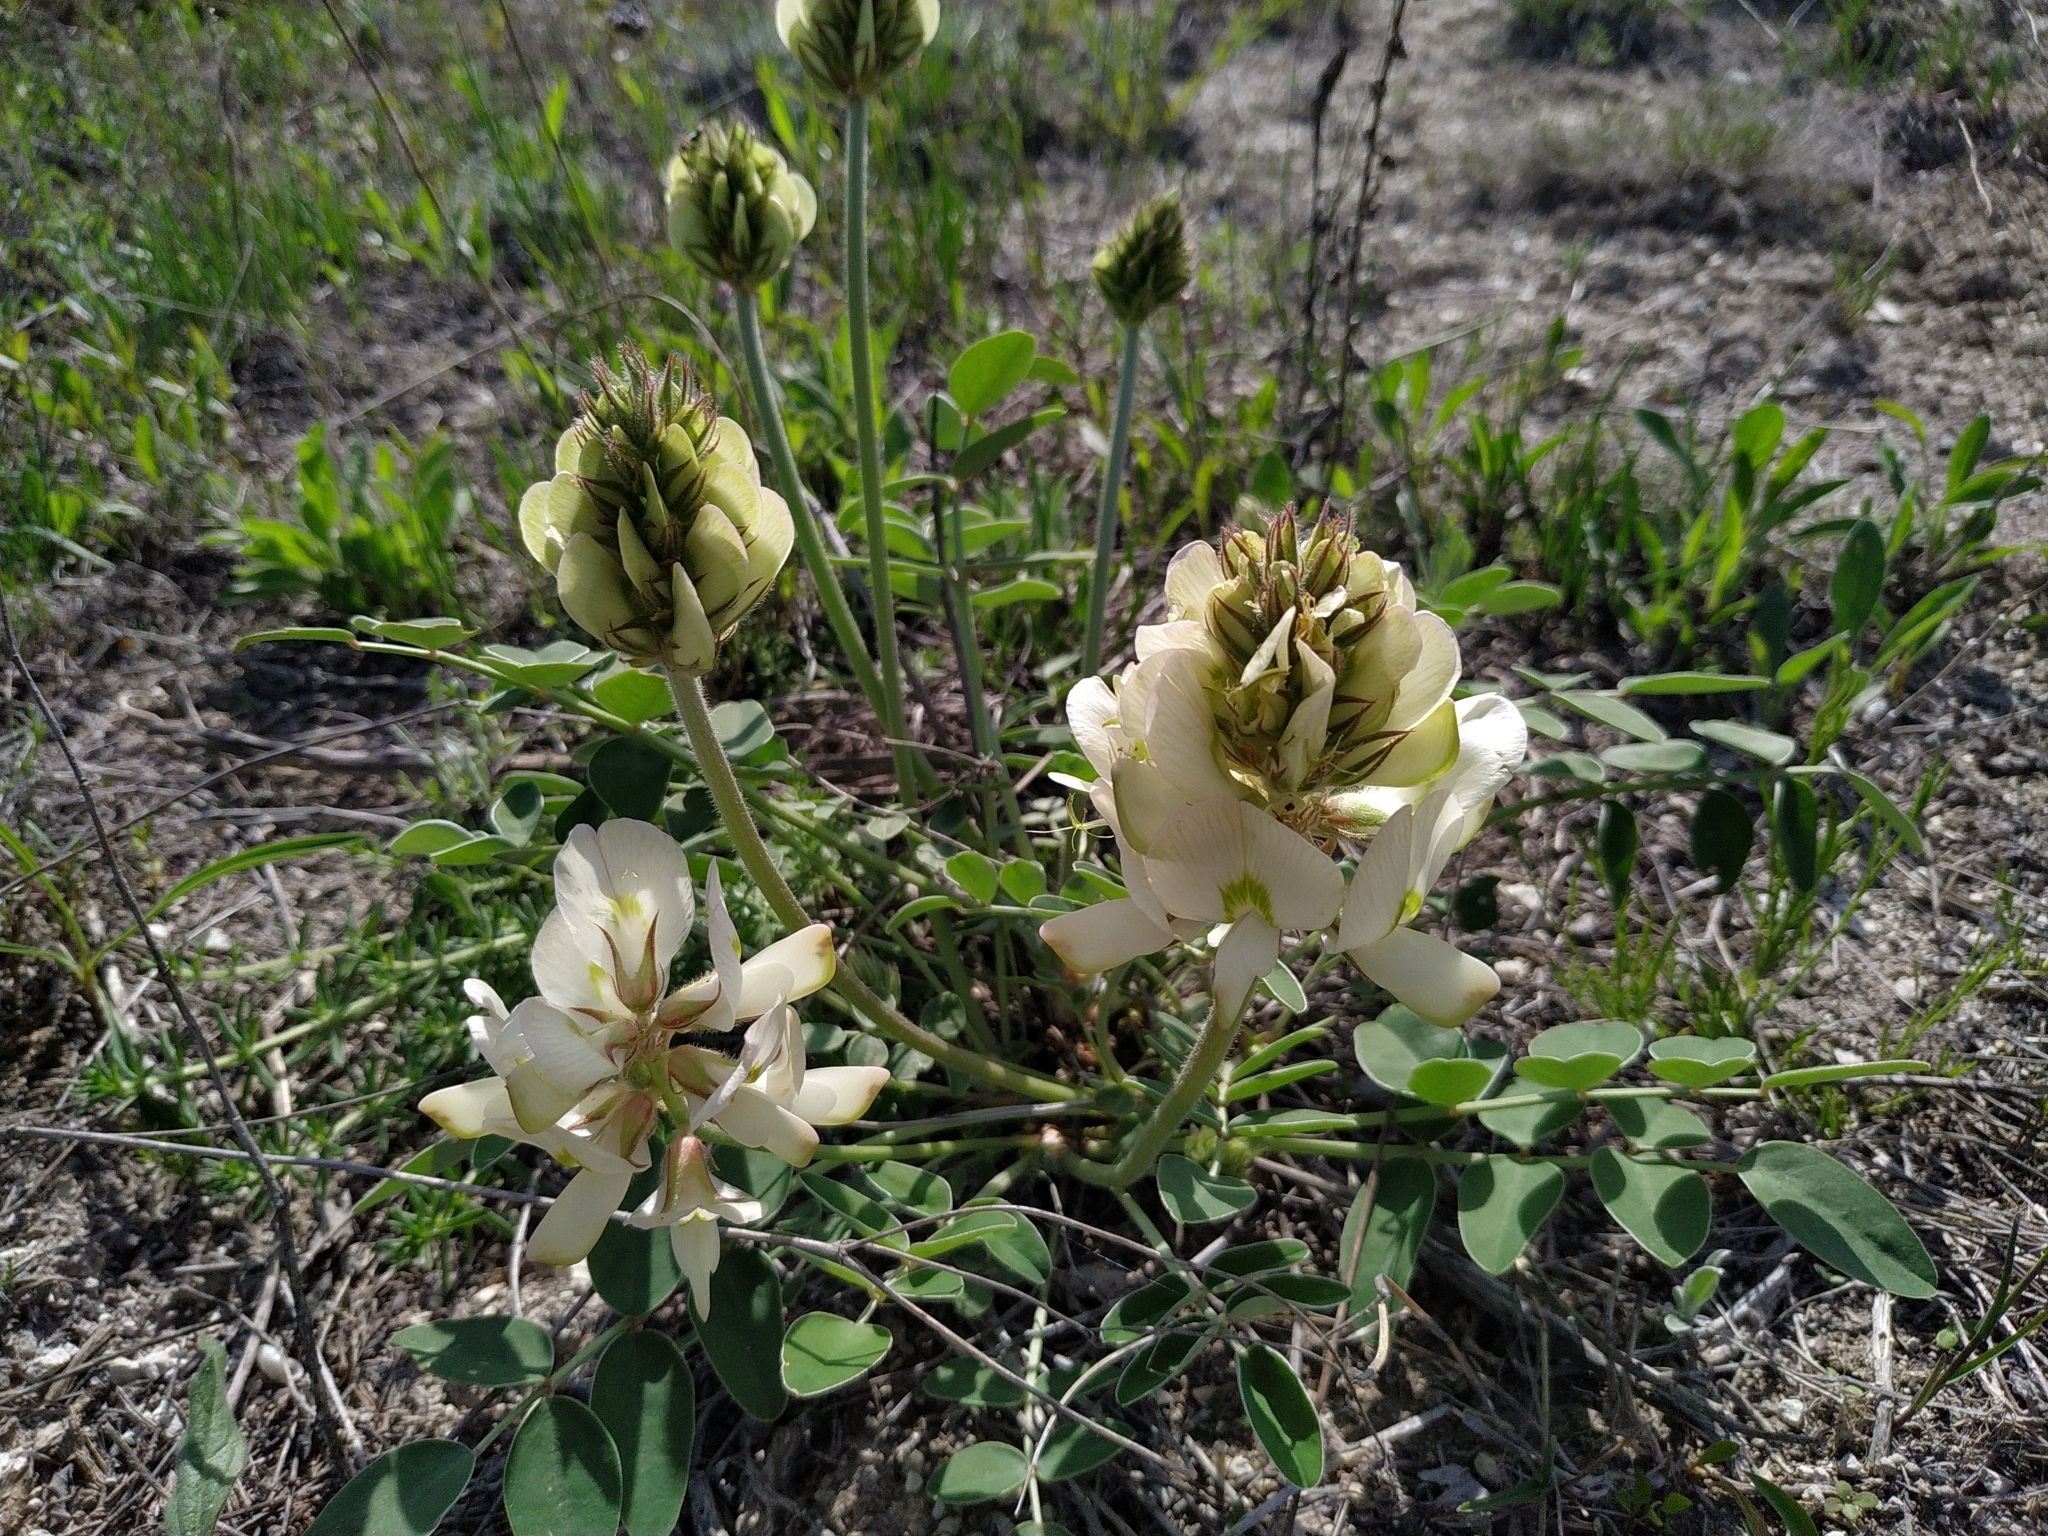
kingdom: Plantae
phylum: Tracheophyta
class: Magnoliopsida
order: Fabales
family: Fabaceae
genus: Hedysarum
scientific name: Hedysarum grandiflorum
